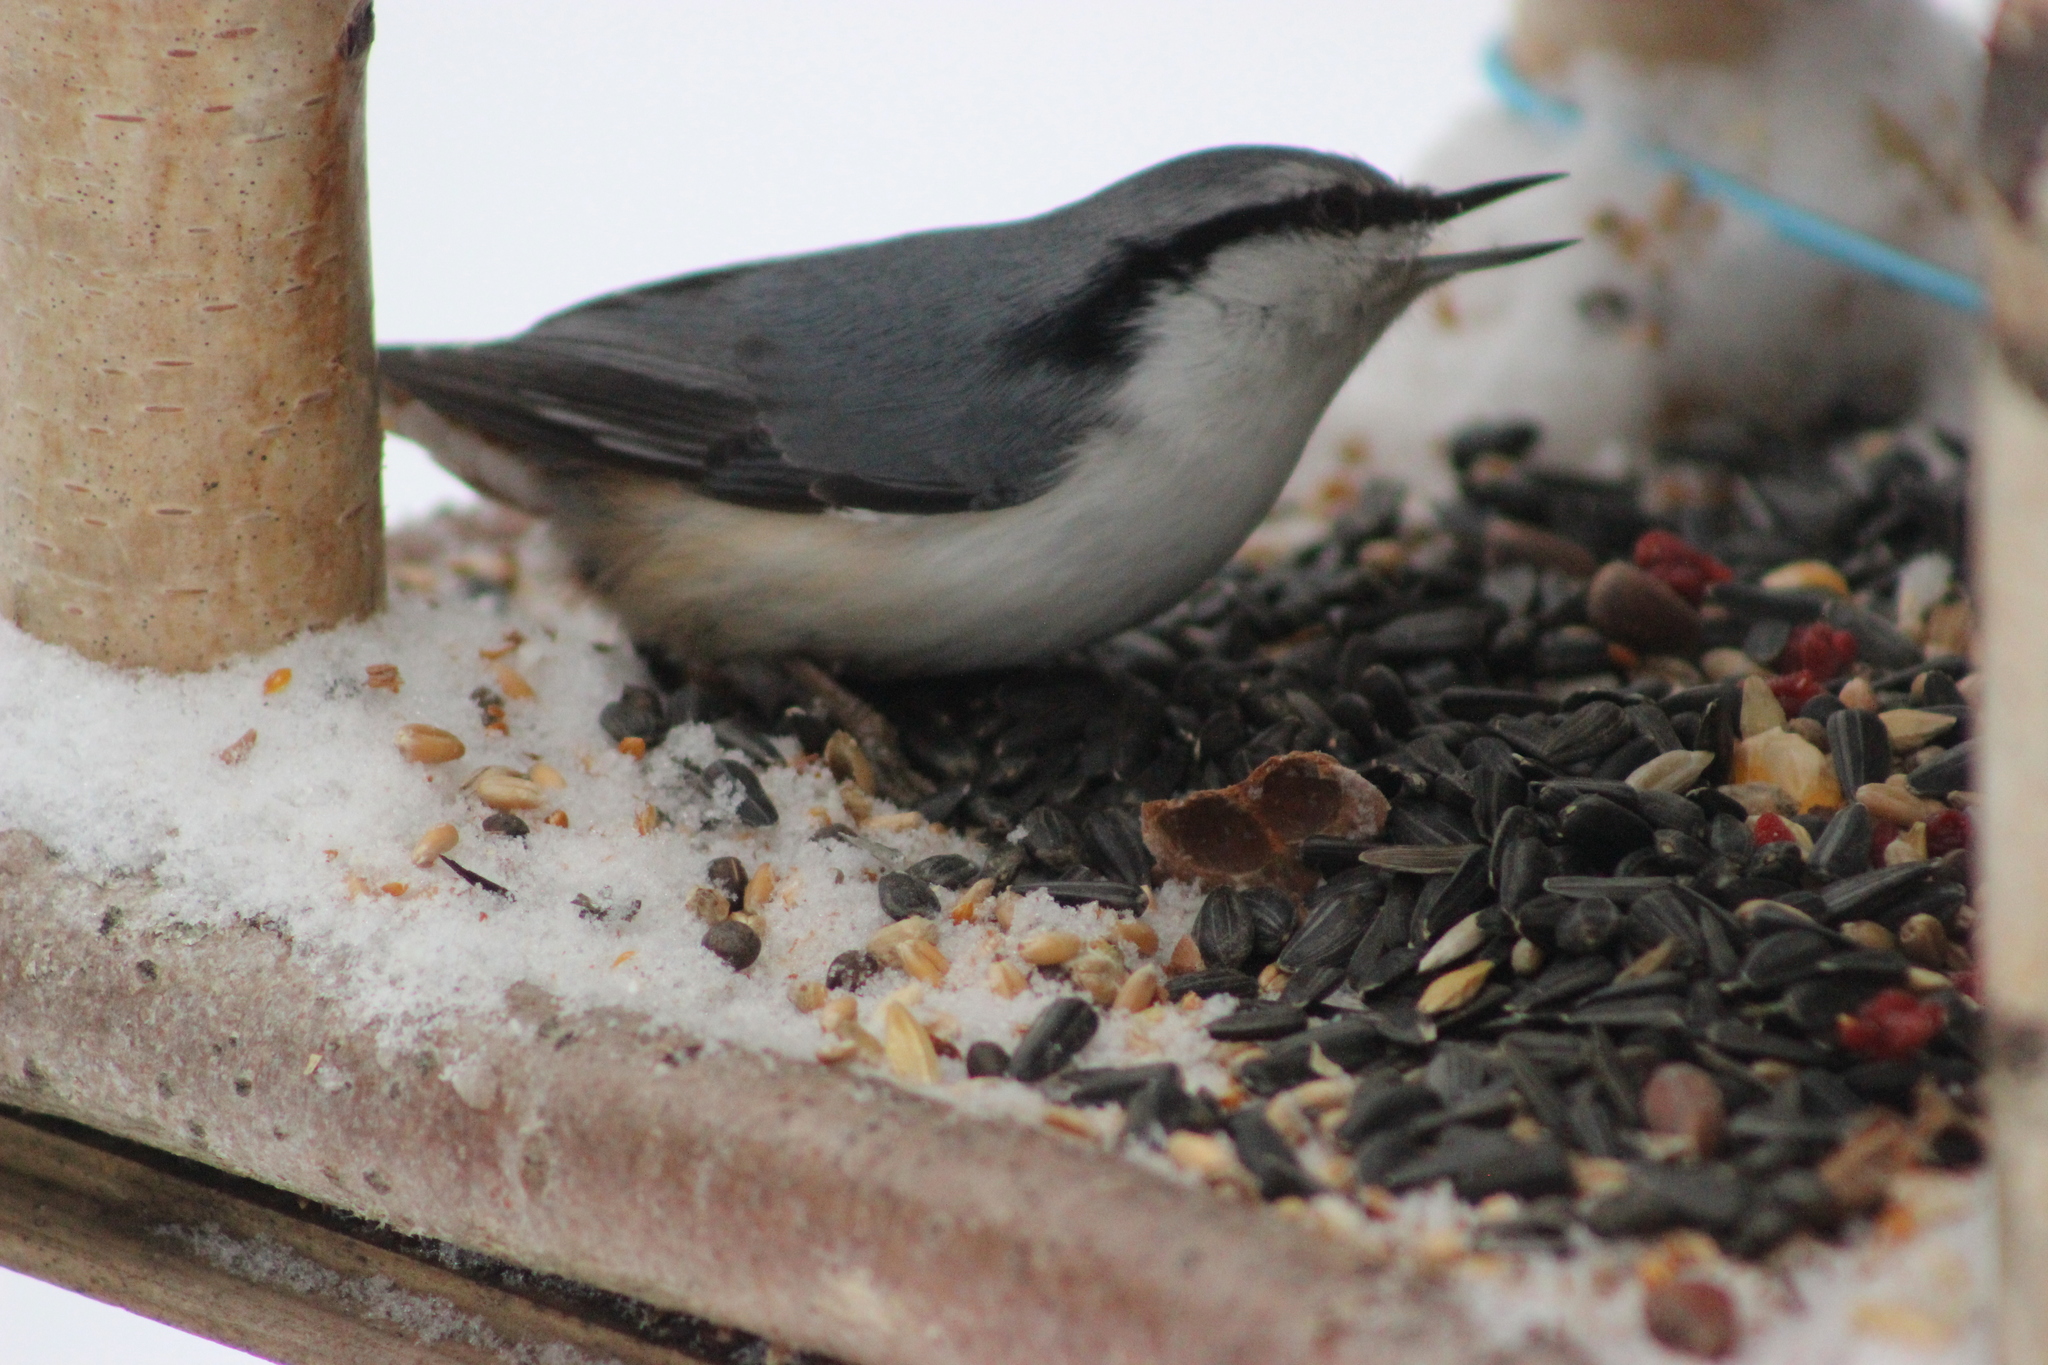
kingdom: Animalia
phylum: Chordata
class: Aves
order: Passeriformes
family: Sittidae
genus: Sitta
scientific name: Sitta europaea
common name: Eurasian nuthatch
